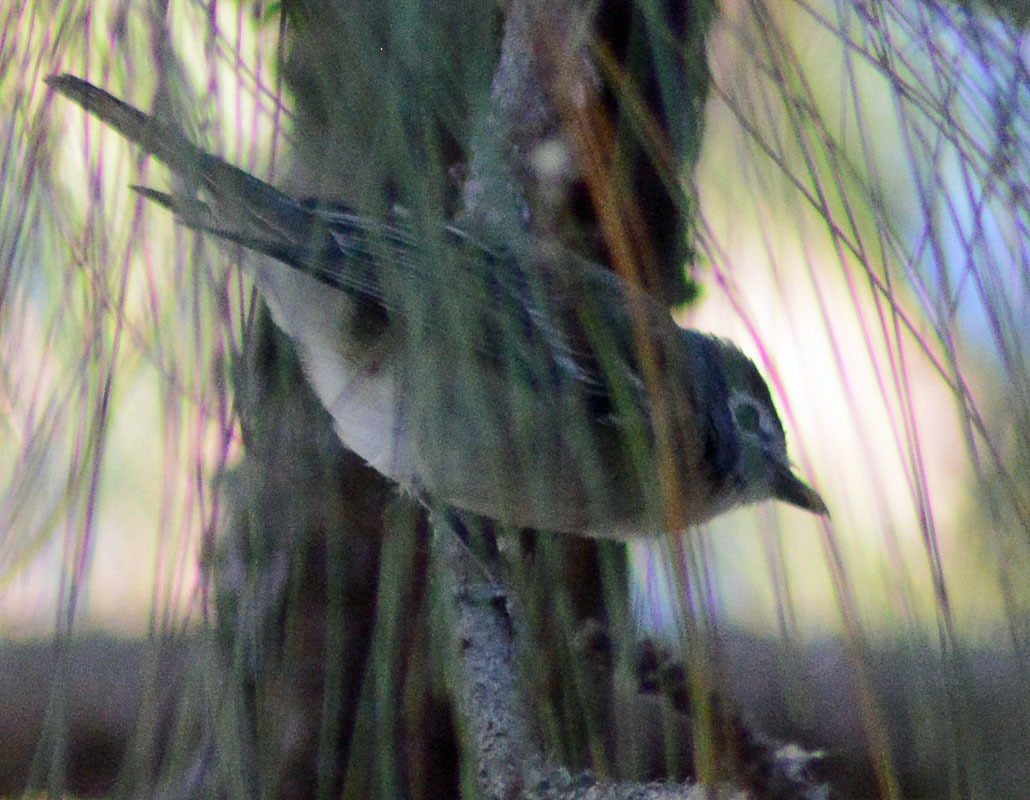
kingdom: Animalia
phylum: Chordata
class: Aves
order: Passeriformes
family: Vireonidae
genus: Vireo
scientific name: Vireo plumbeus
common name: Plumbeous vireo
